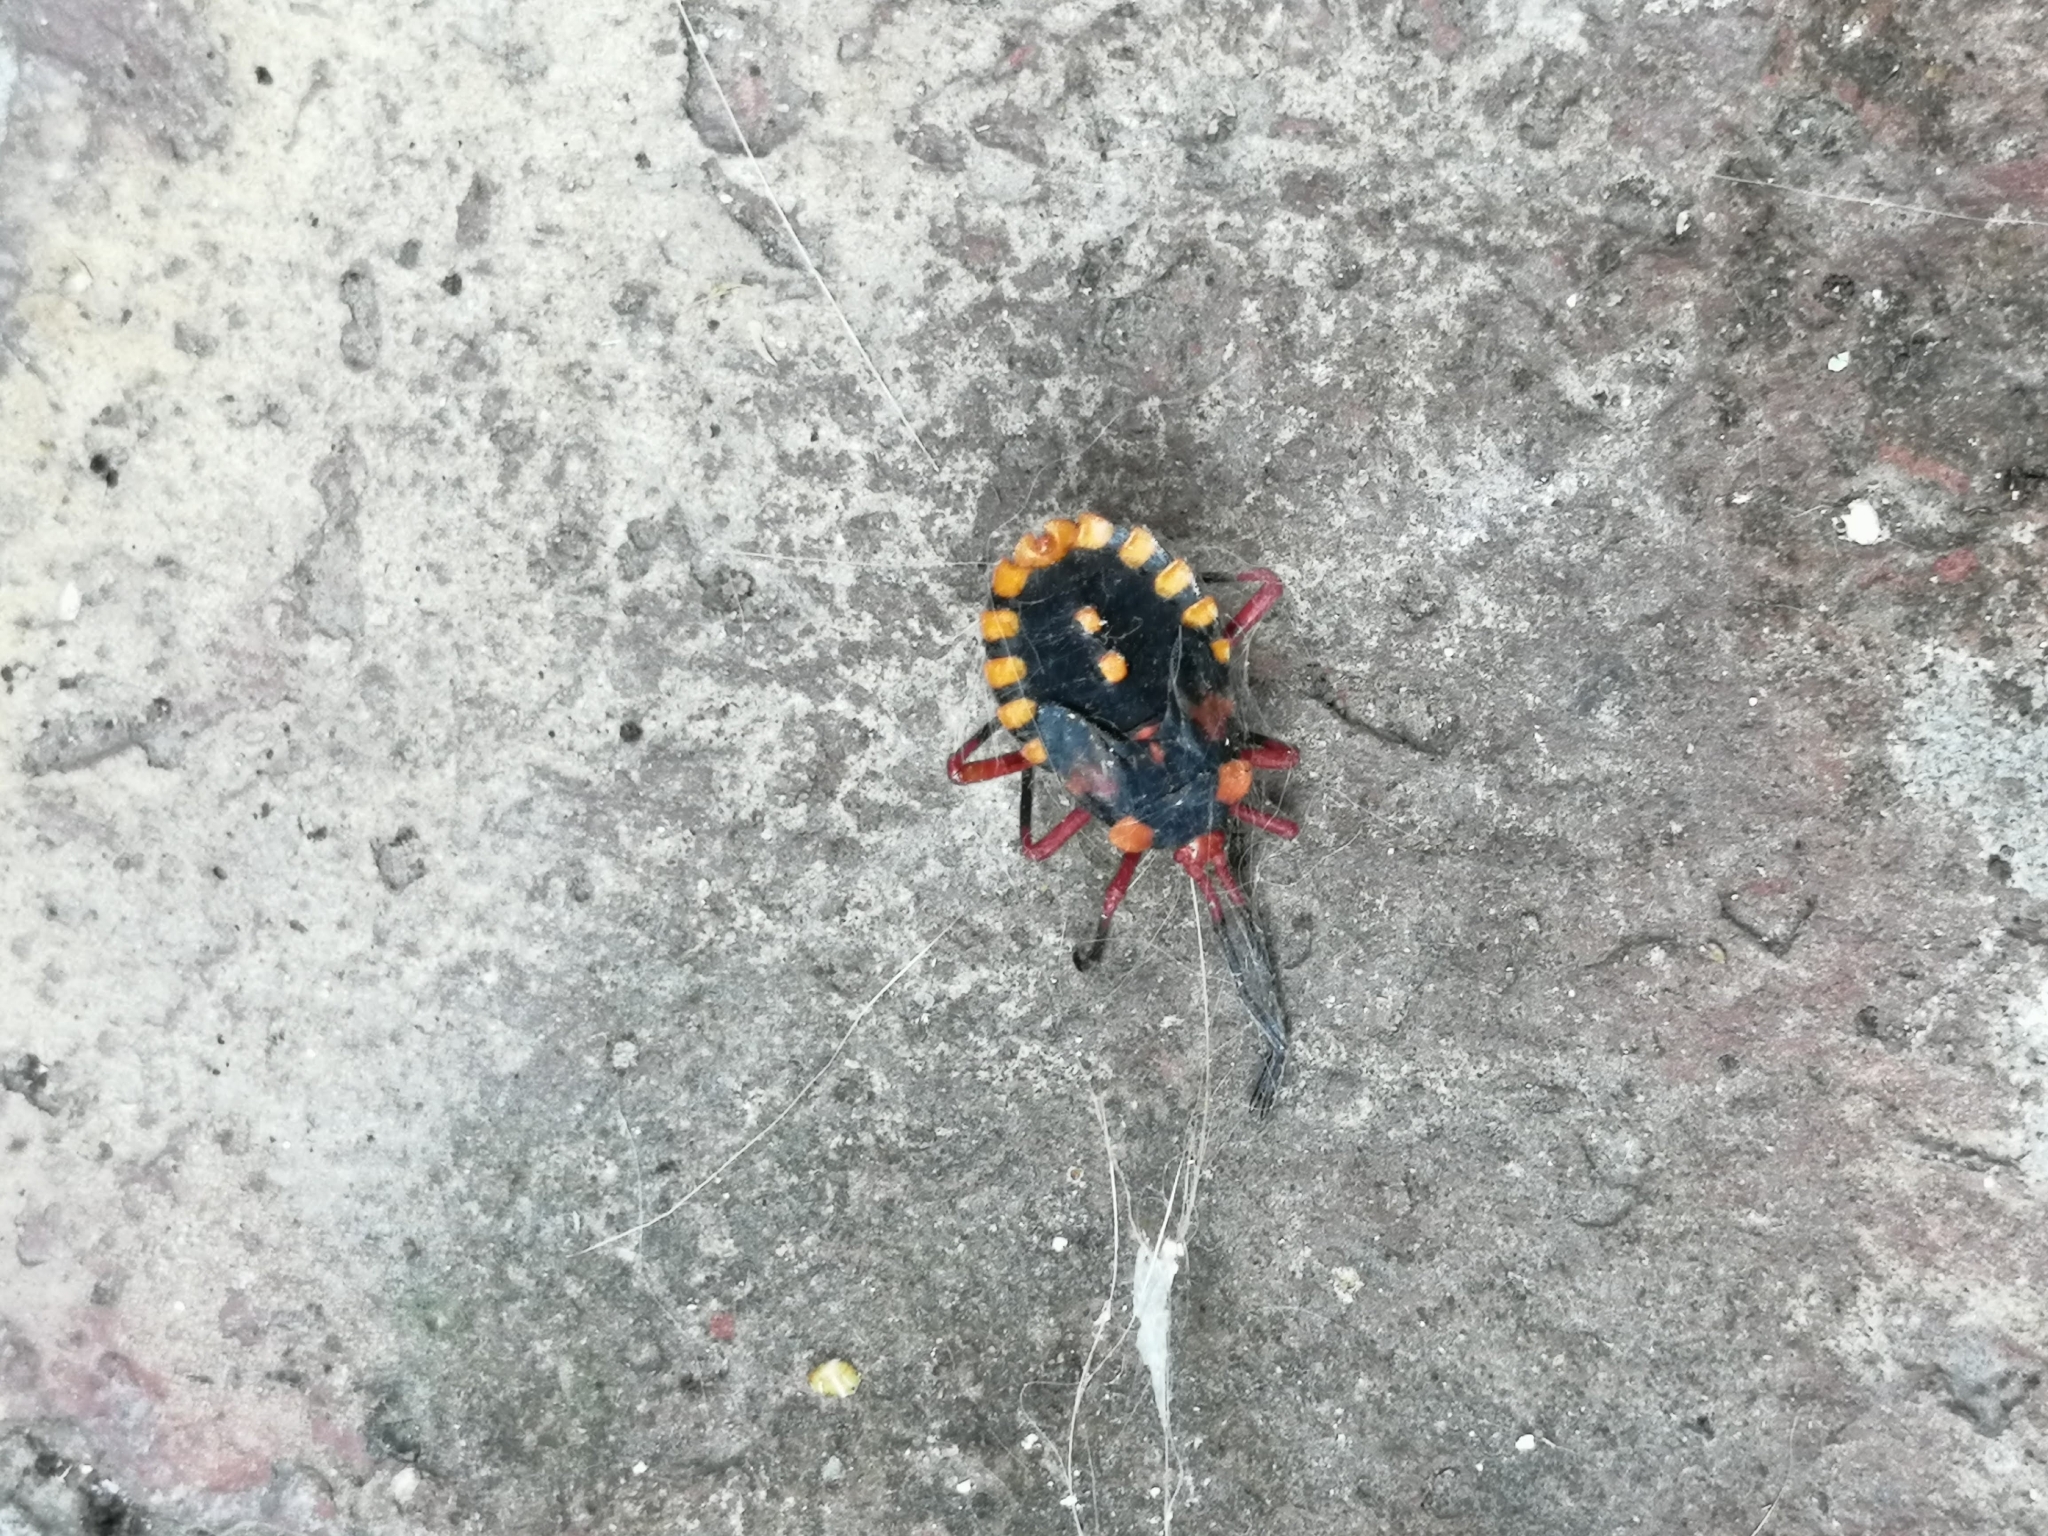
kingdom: Animalia
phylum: Arthropoda
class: Insecta
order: Hemiptera
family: Coreidae
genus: Spartocera
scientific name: Spartocera fusca
